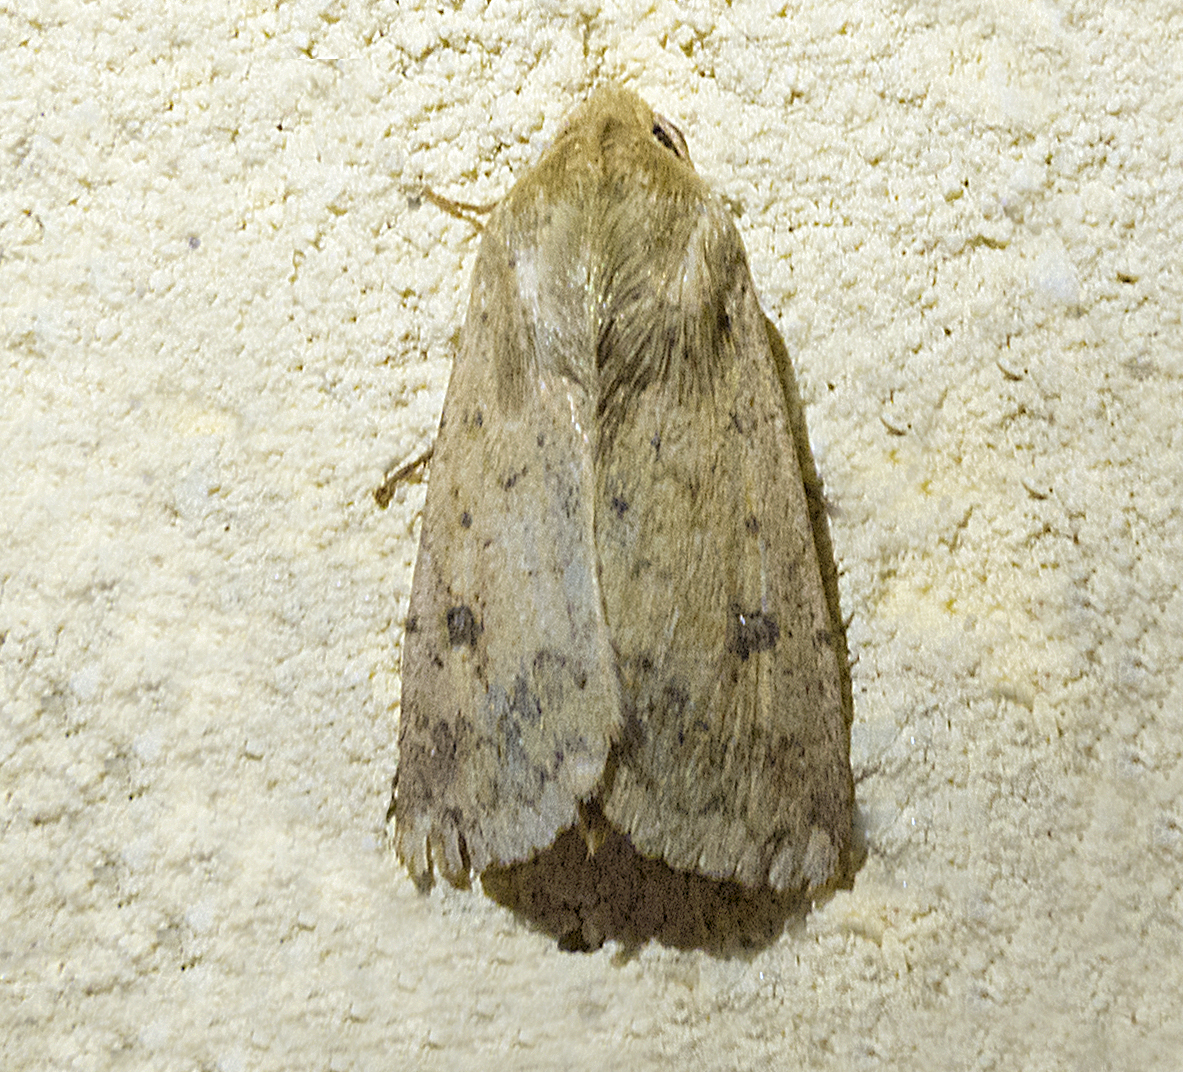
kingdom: Animalia
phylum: Arthropoda
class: Insecta
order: Lepidoptera
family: Noctuidae
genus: Helicoverpa
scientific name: Helicoverpa armigera
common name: Cotton bollworm
